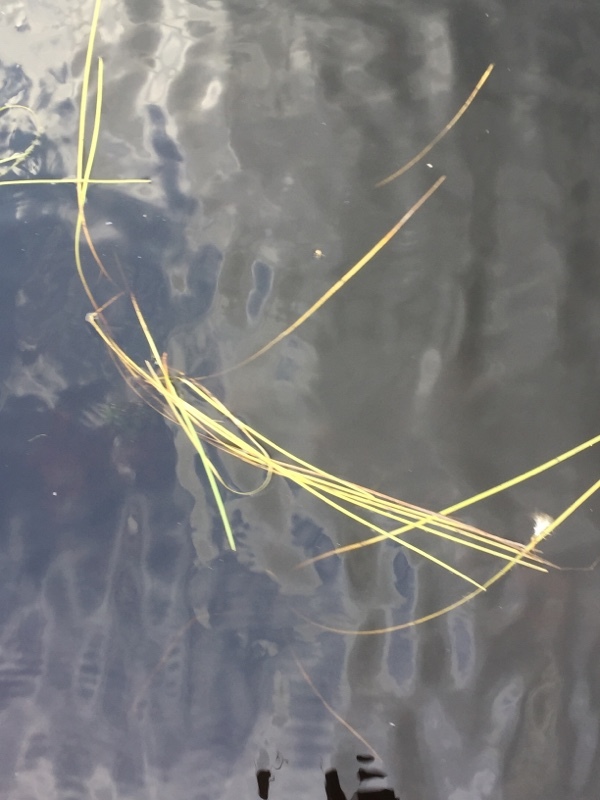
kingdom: Plantae
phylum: Tracheophyta
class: Liliopsida
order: Poales
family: Typhaceae
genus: Sparganium
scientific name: Sparganium angustifolium
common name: Floating bur-reed
